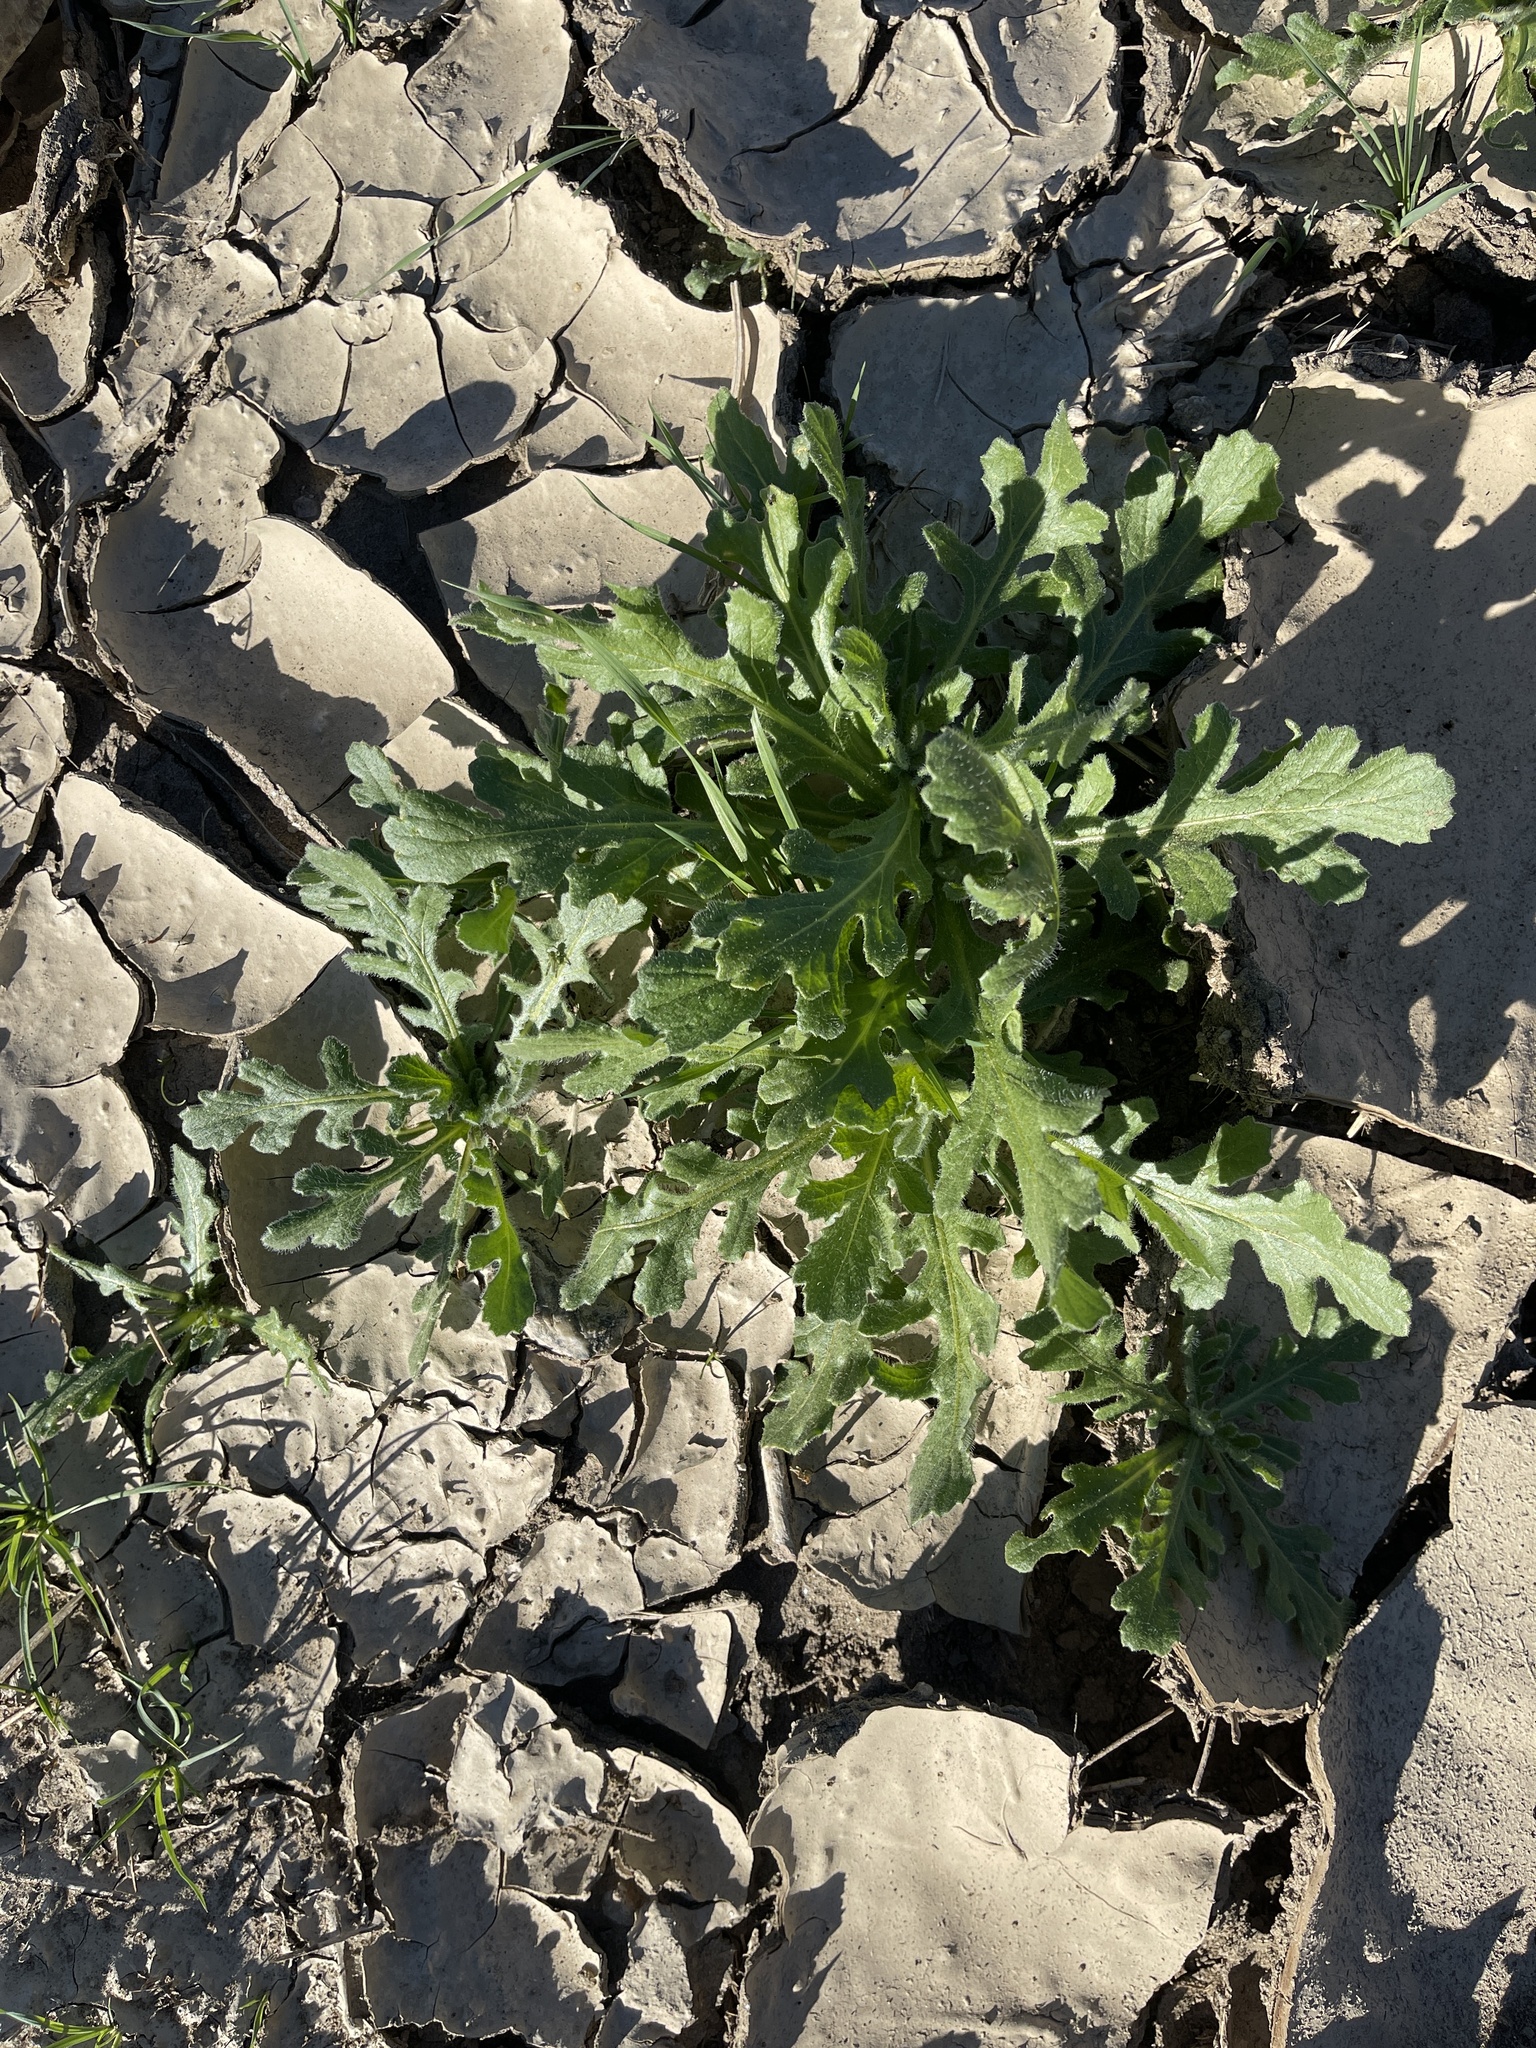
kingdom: Plantae
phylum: Tracheophyta
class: Magnoliopsida
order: Asterales
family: Asteraceae
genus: Volutaria
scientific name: Volutaria tubuliflora
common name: Desert knapweed
